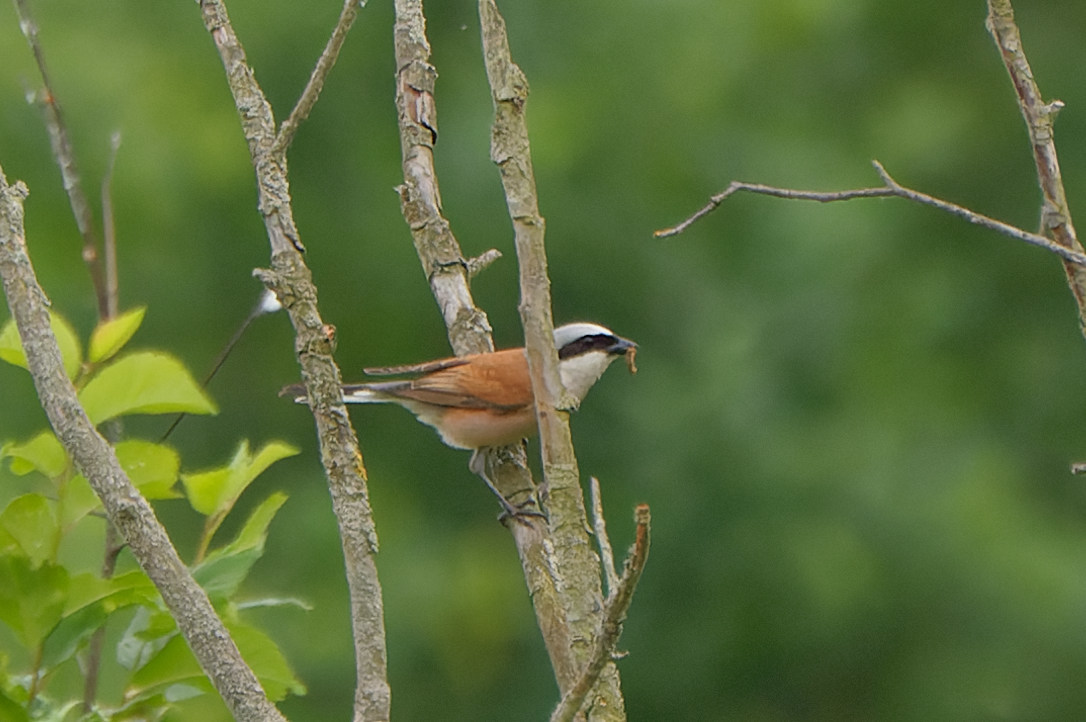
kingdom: Animalia
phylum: Chordata
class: Aves
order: Passeriformes
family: Laniidae
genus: Lanius
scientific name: Lanius collurio
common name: Red-backed shrike
